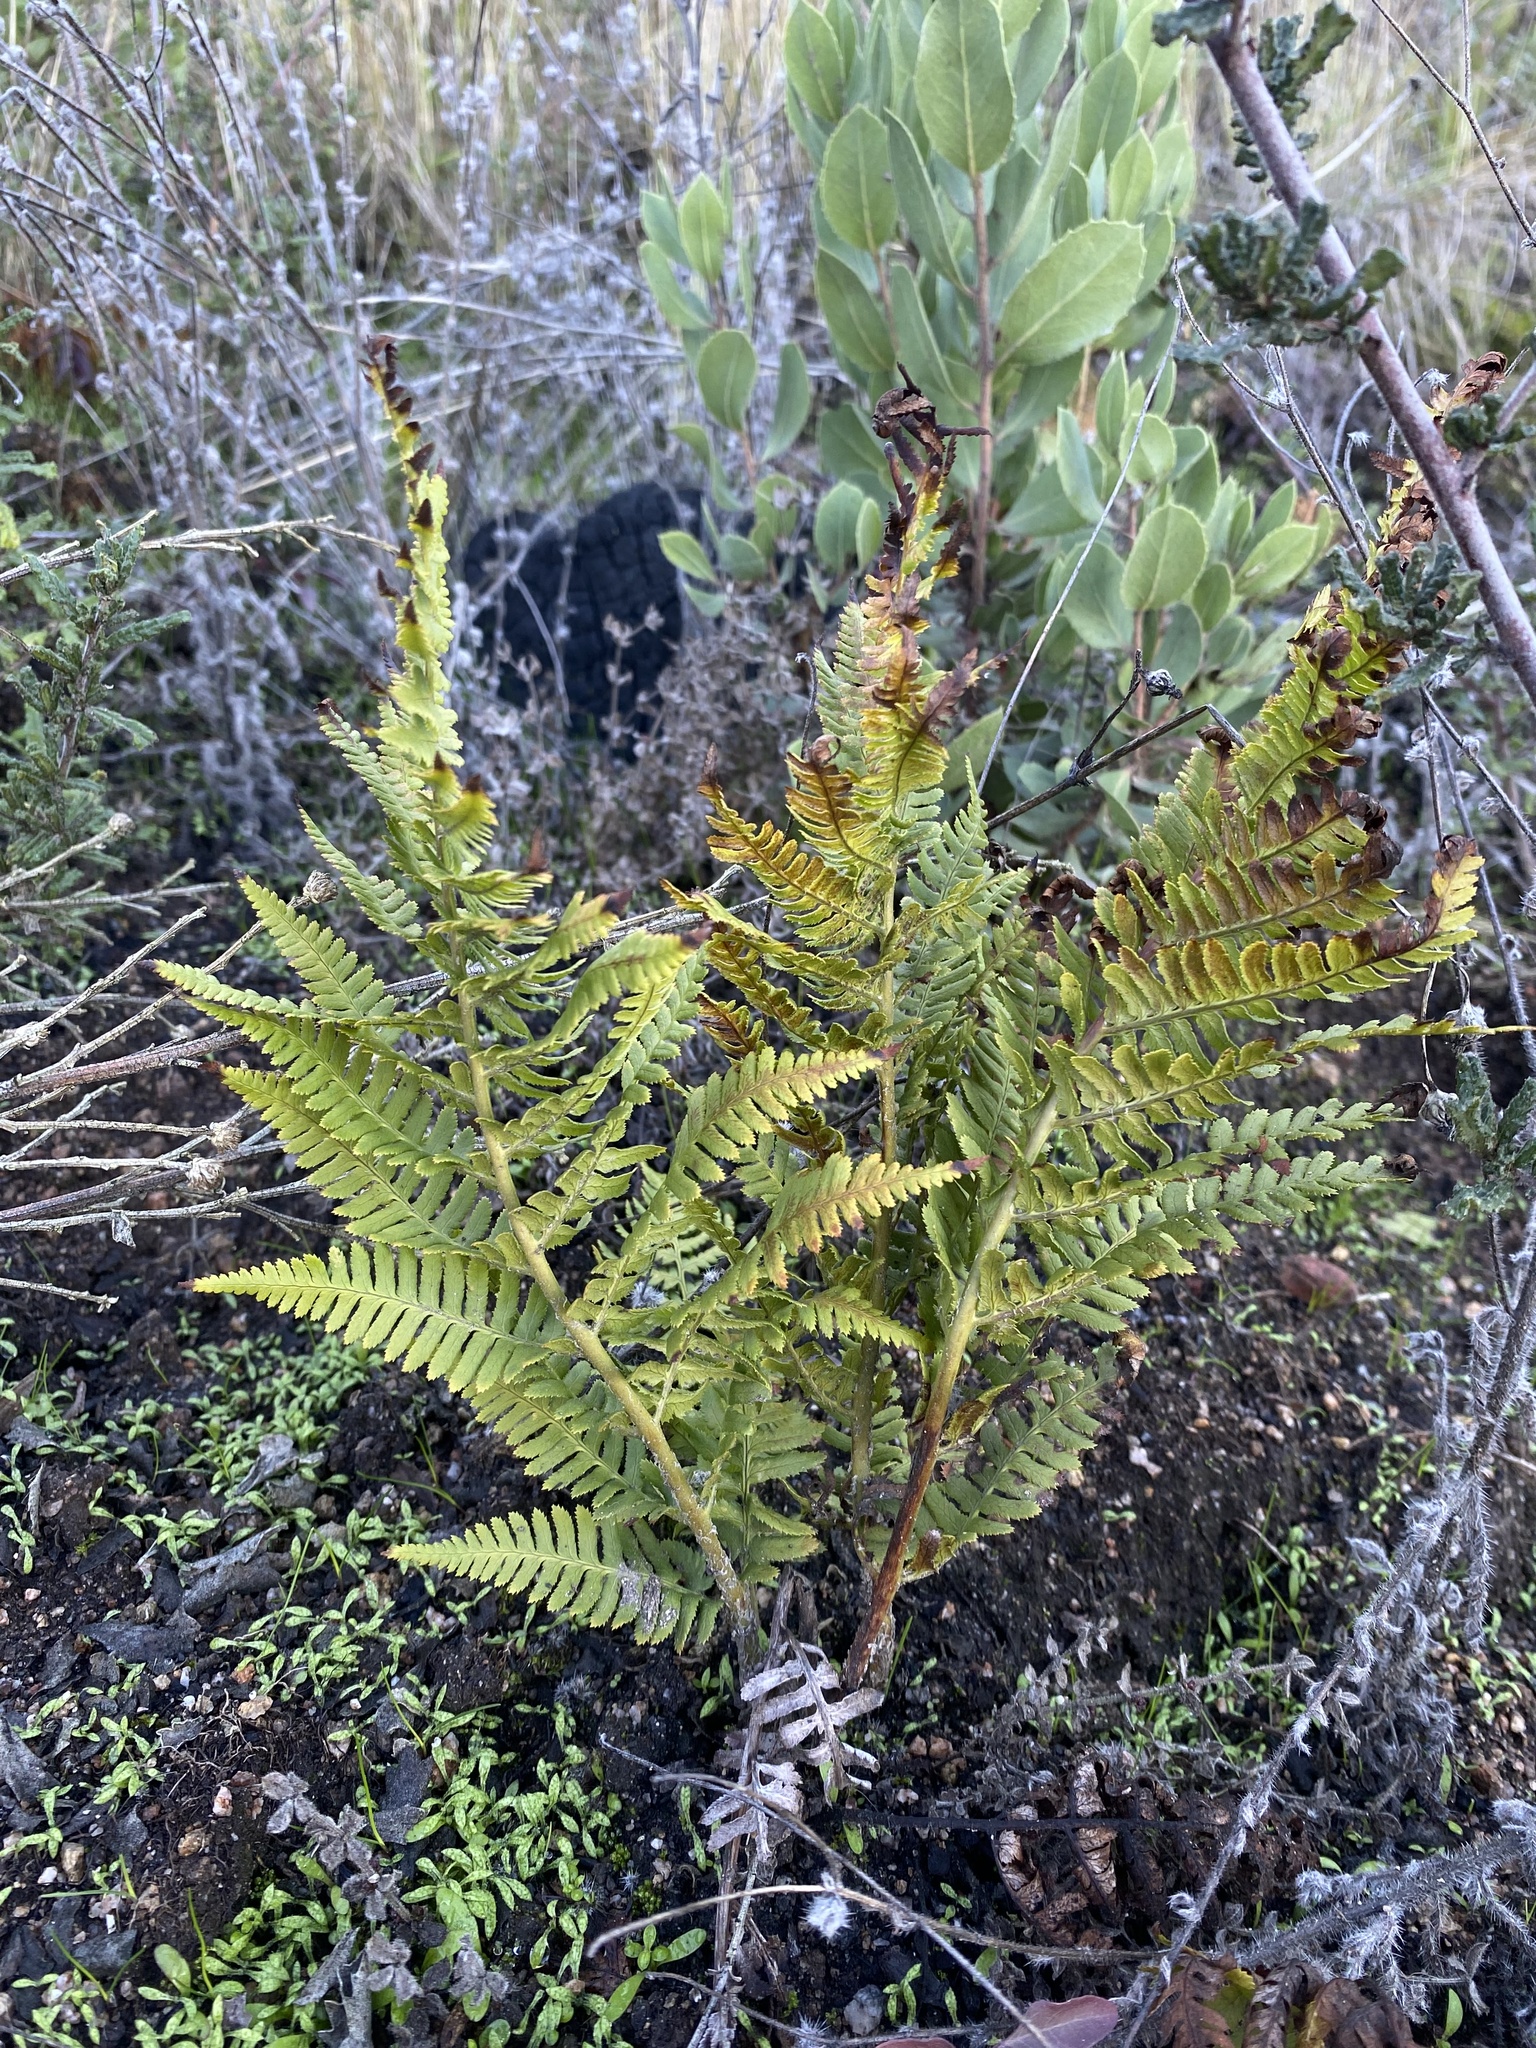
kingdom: Plantae
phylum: Tracheophyta
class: Polypodiopsida
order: Polypodiales
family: Dryopteridaceae
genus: Dryopteris
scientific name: Dryopteris arguta
